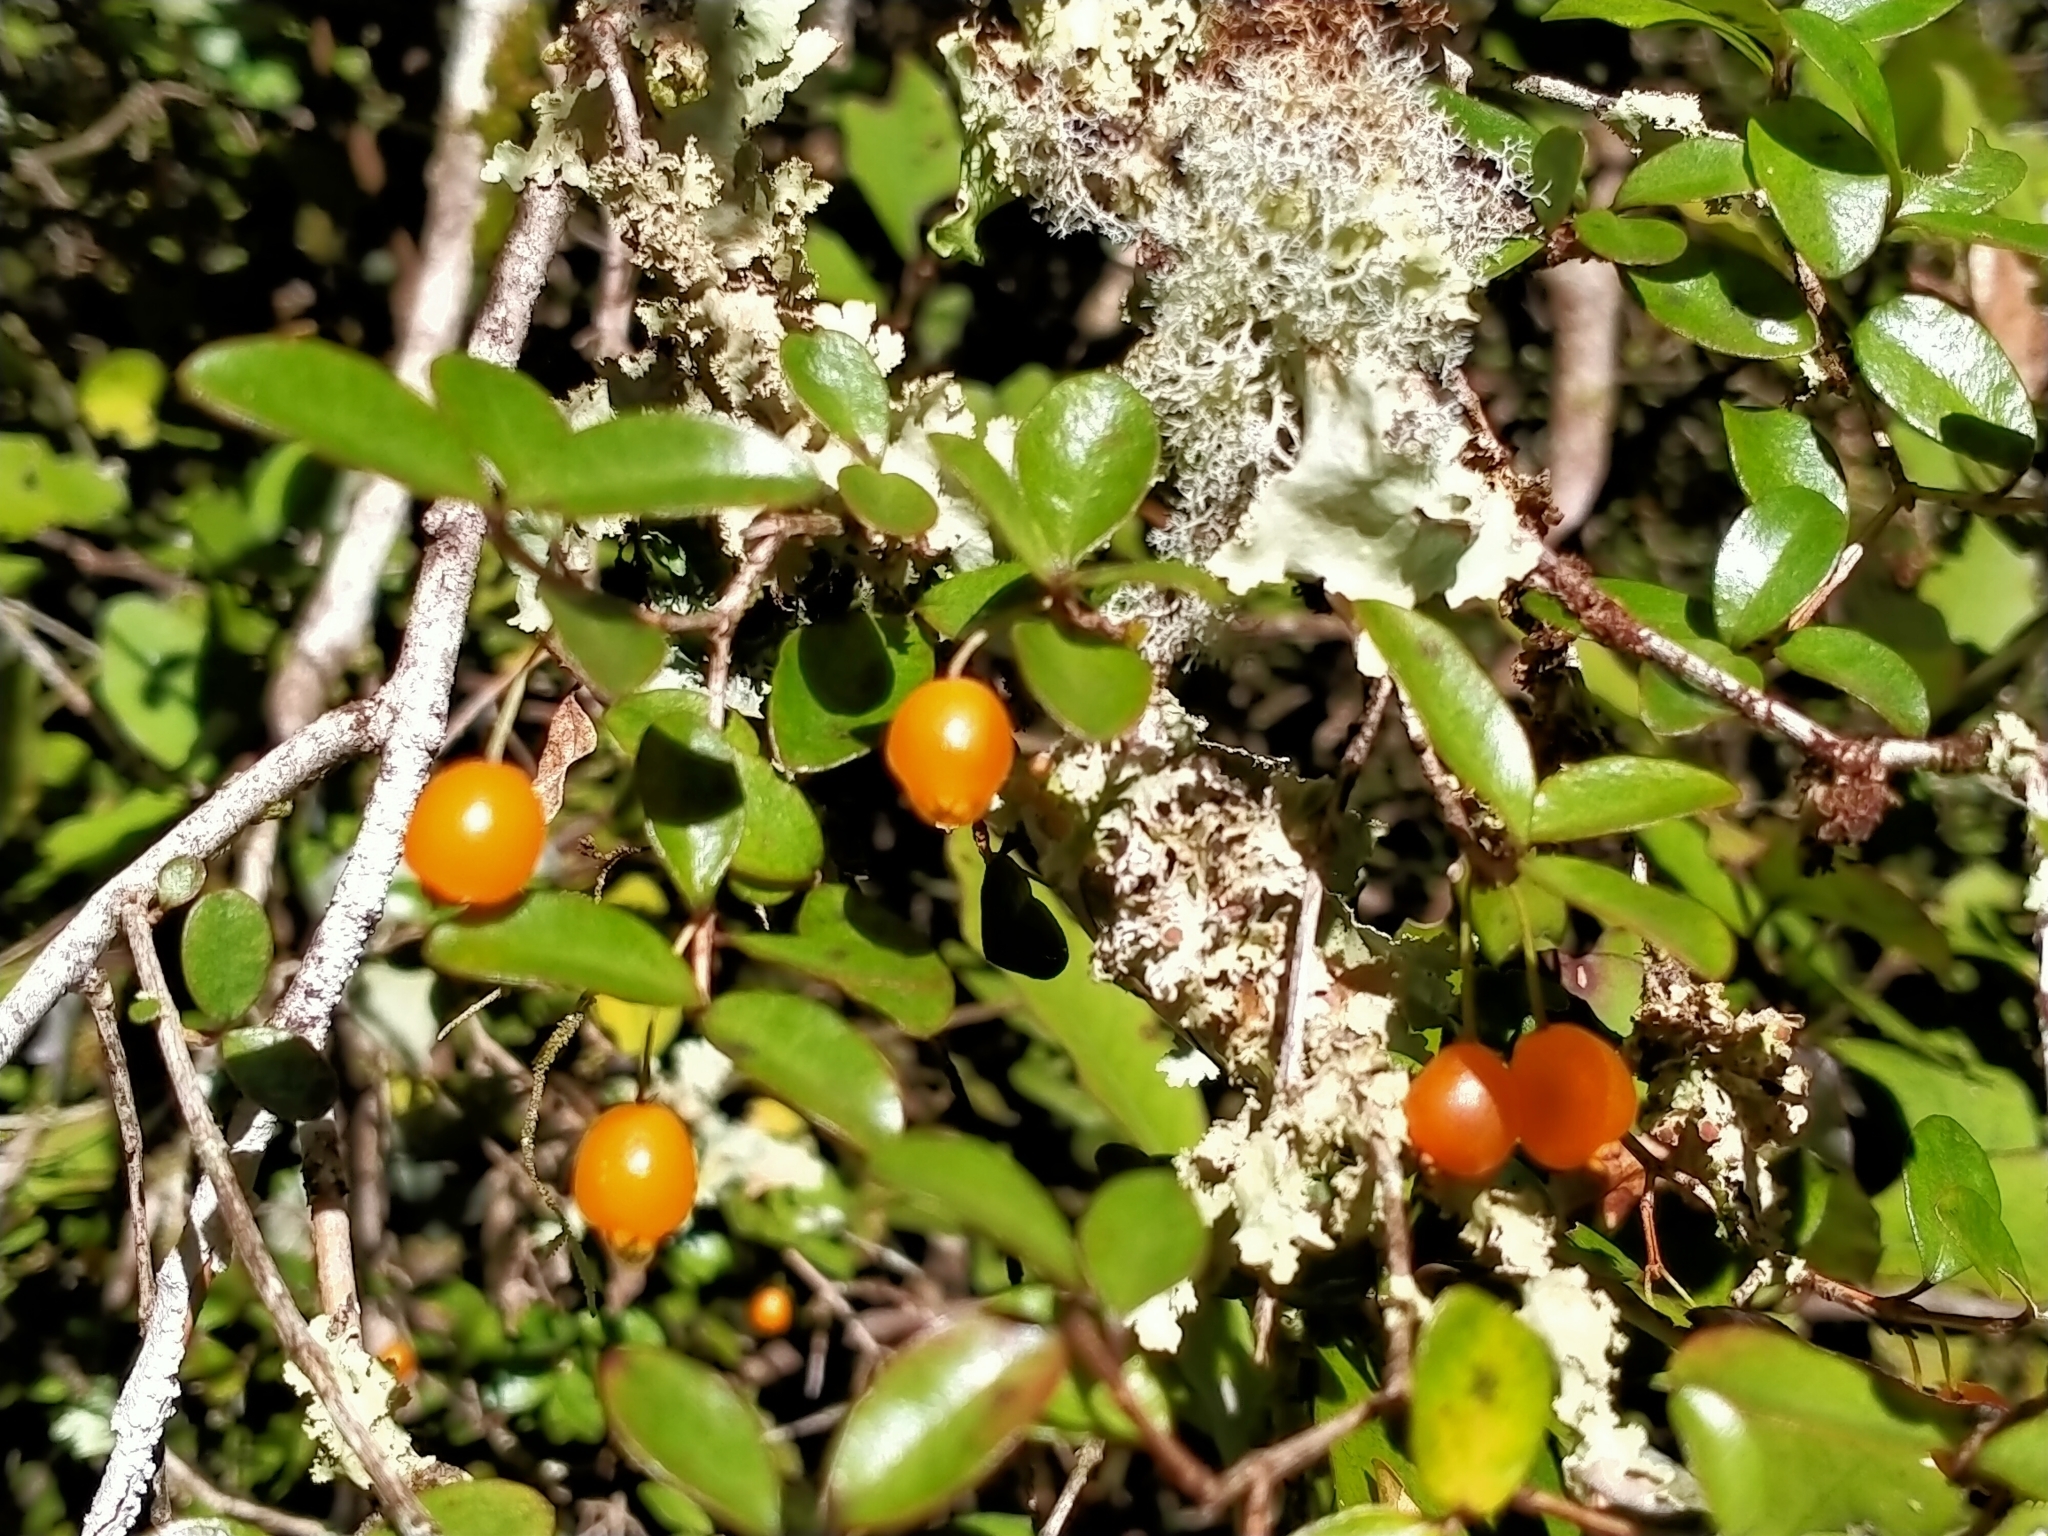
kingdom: Plantae
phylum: Tracheophyta
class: Magnoliopsida
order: Myrtales
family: Myrtaceae
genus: Neomyrtus
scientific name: Neomyrtus pedunculata
